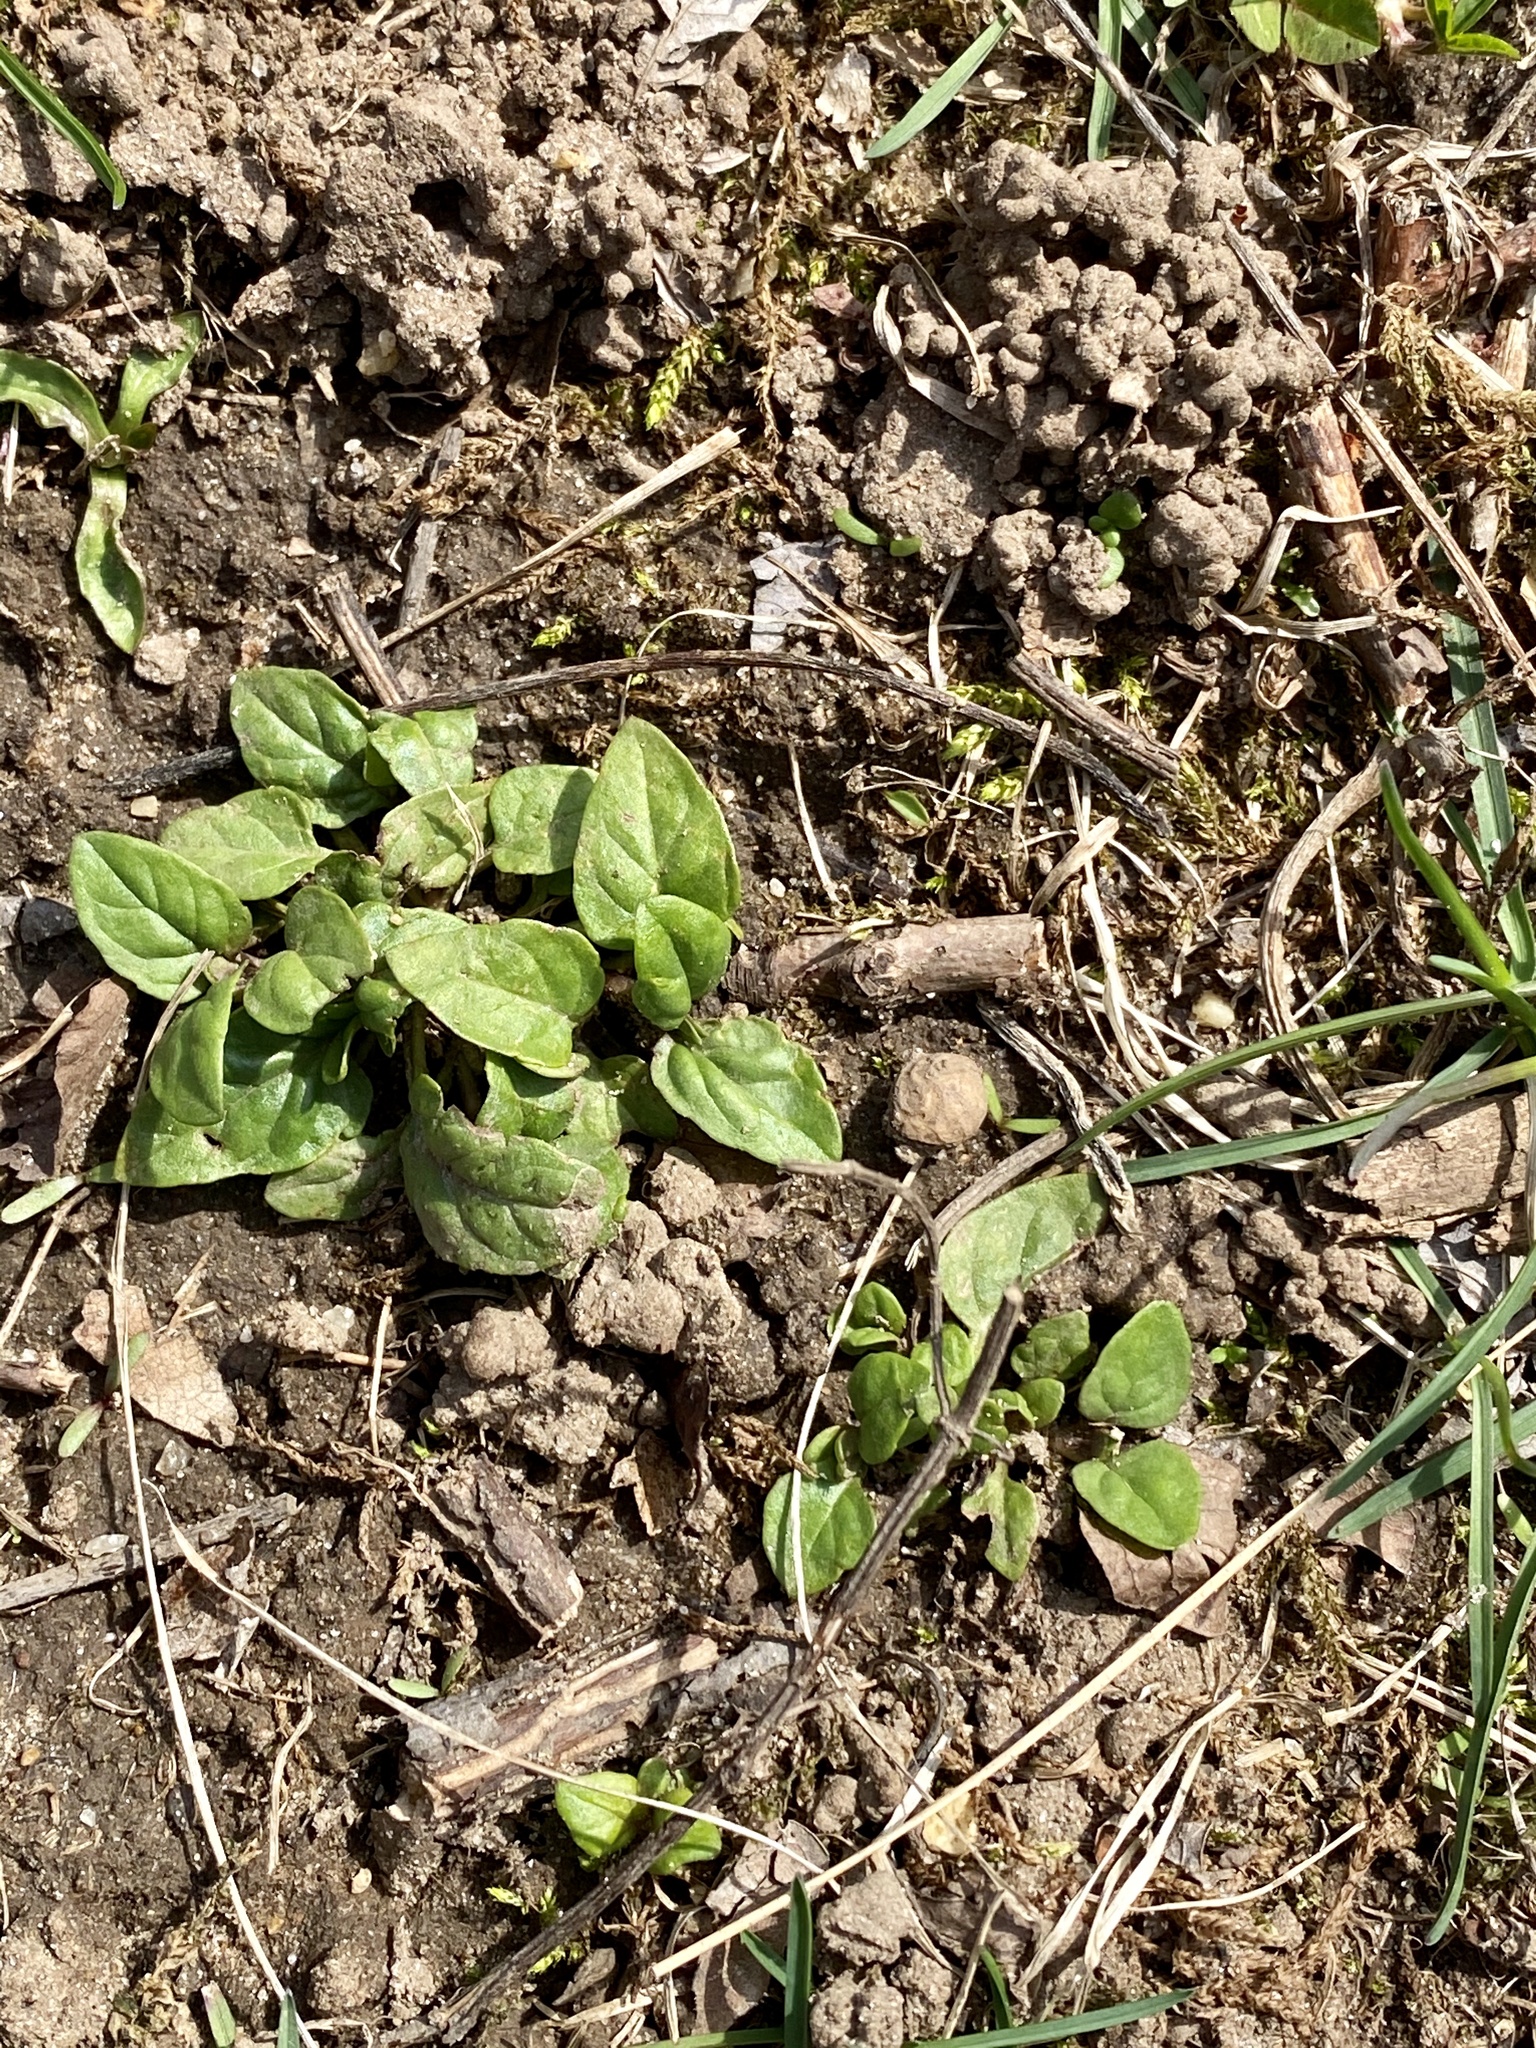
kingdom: Plantae
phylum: Tracheophyta
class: Magnoliopsida
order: Lamiales
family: Lamiaceae
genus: Prunella
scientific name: Prunella vulgaris
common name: Heal-all
